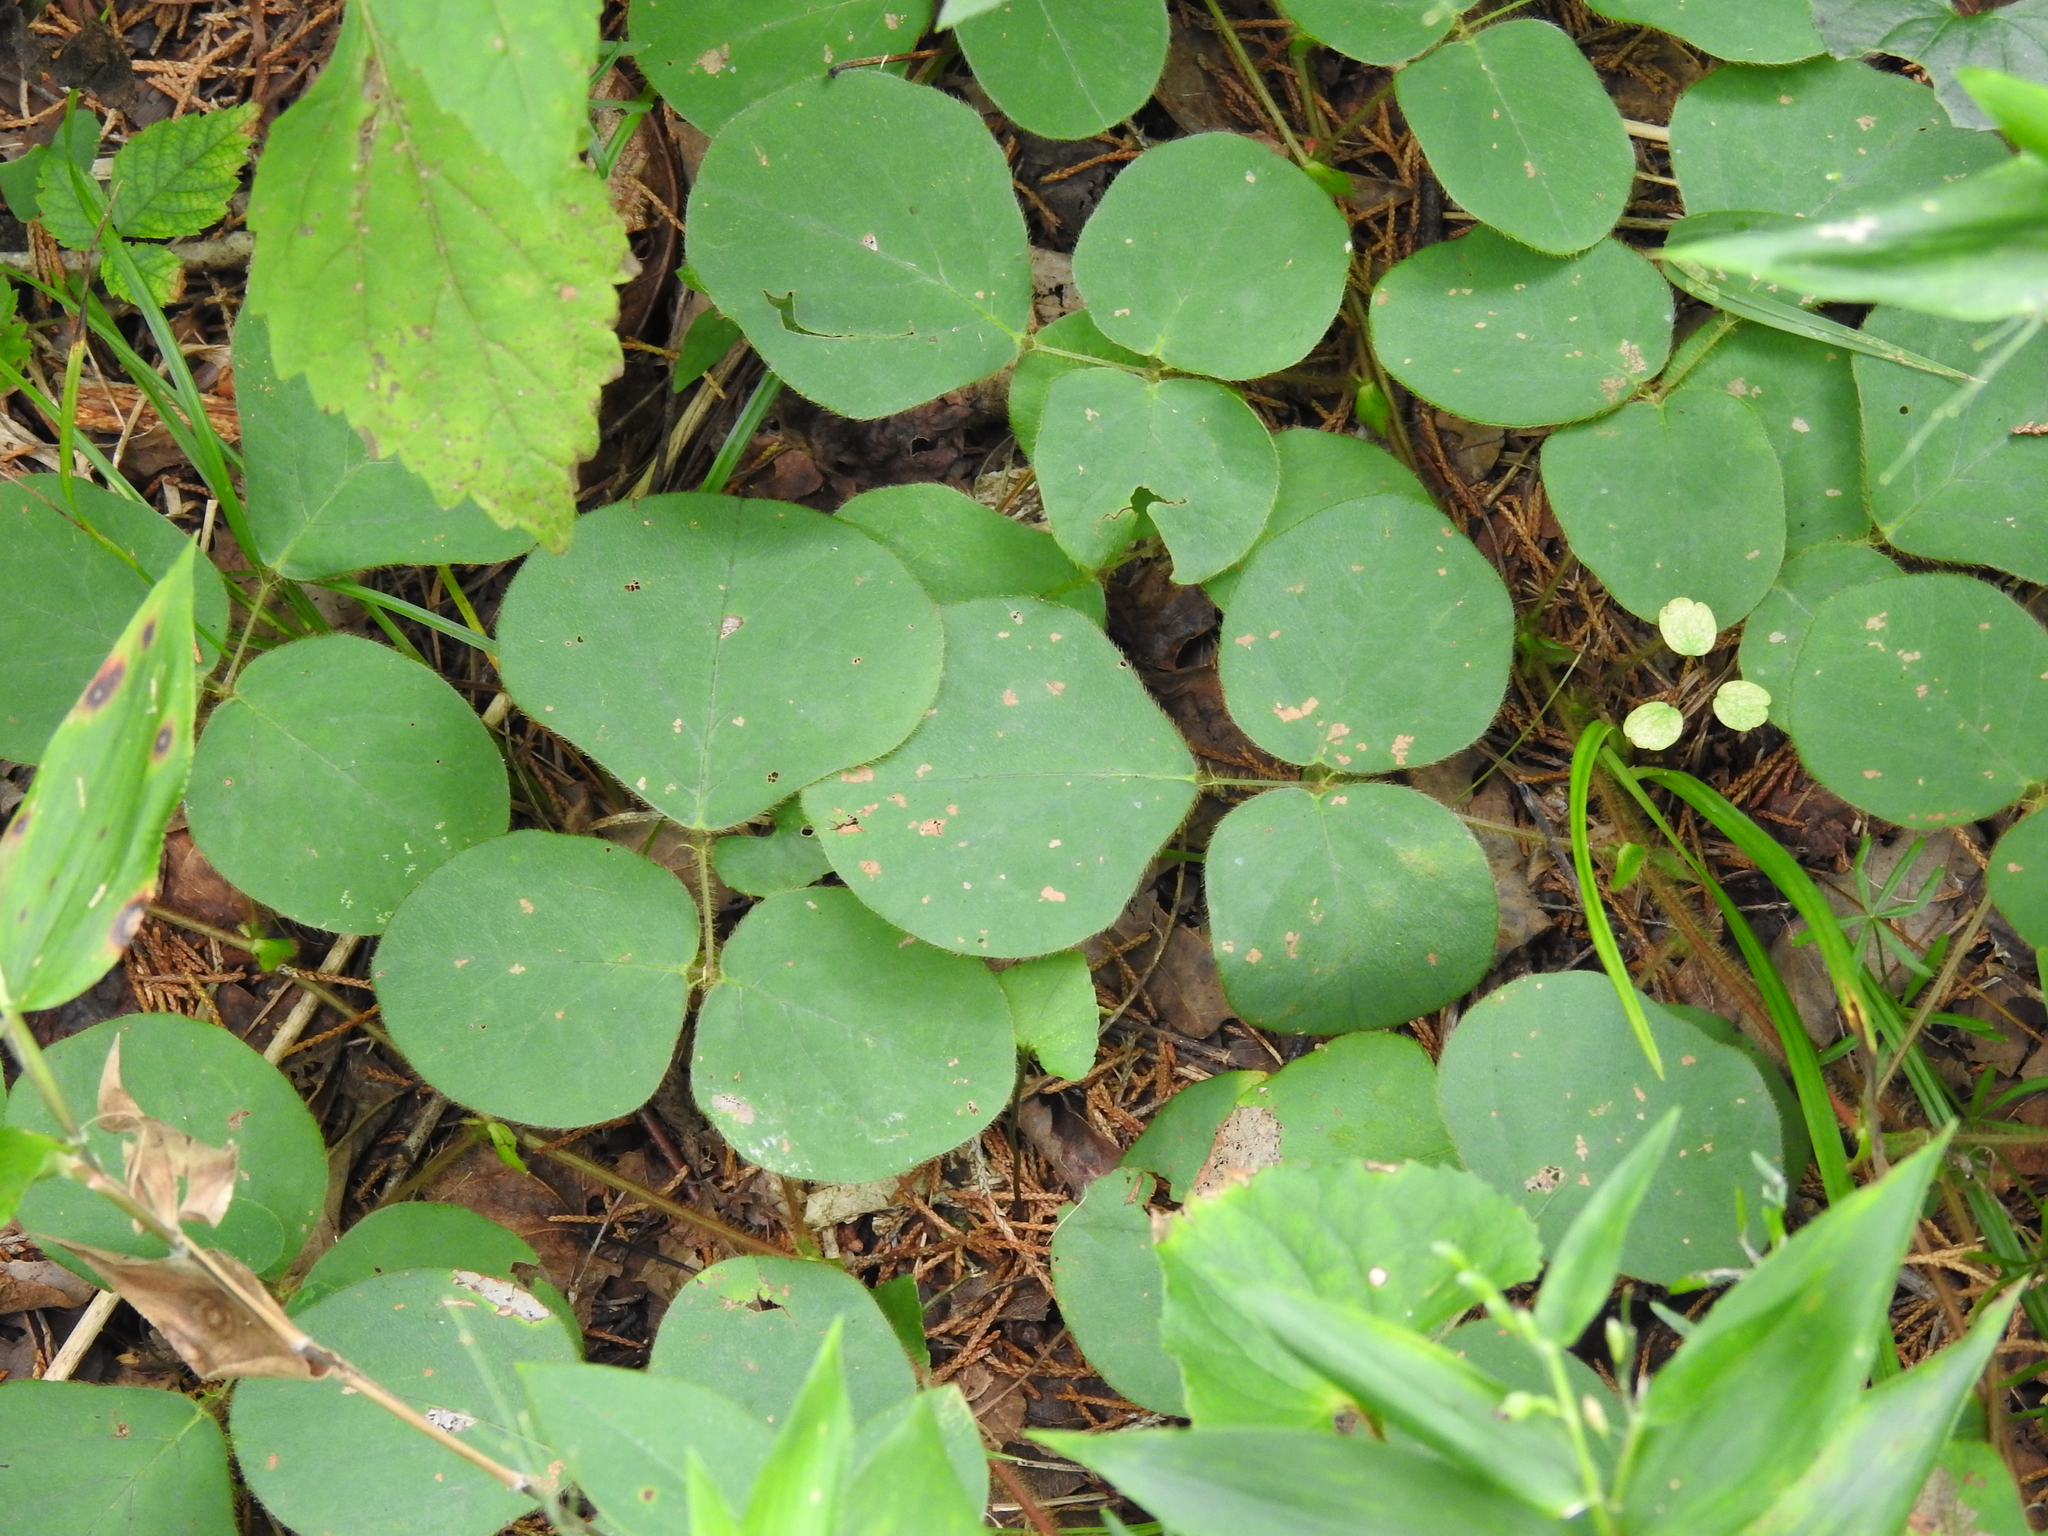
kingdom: Plantae
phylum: Tracheophyta
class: Magnoliopsida
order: Fabales
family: Fabaceae
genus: Desmodium
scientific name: Desmodium rotundifolium
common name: Dollarleaf
